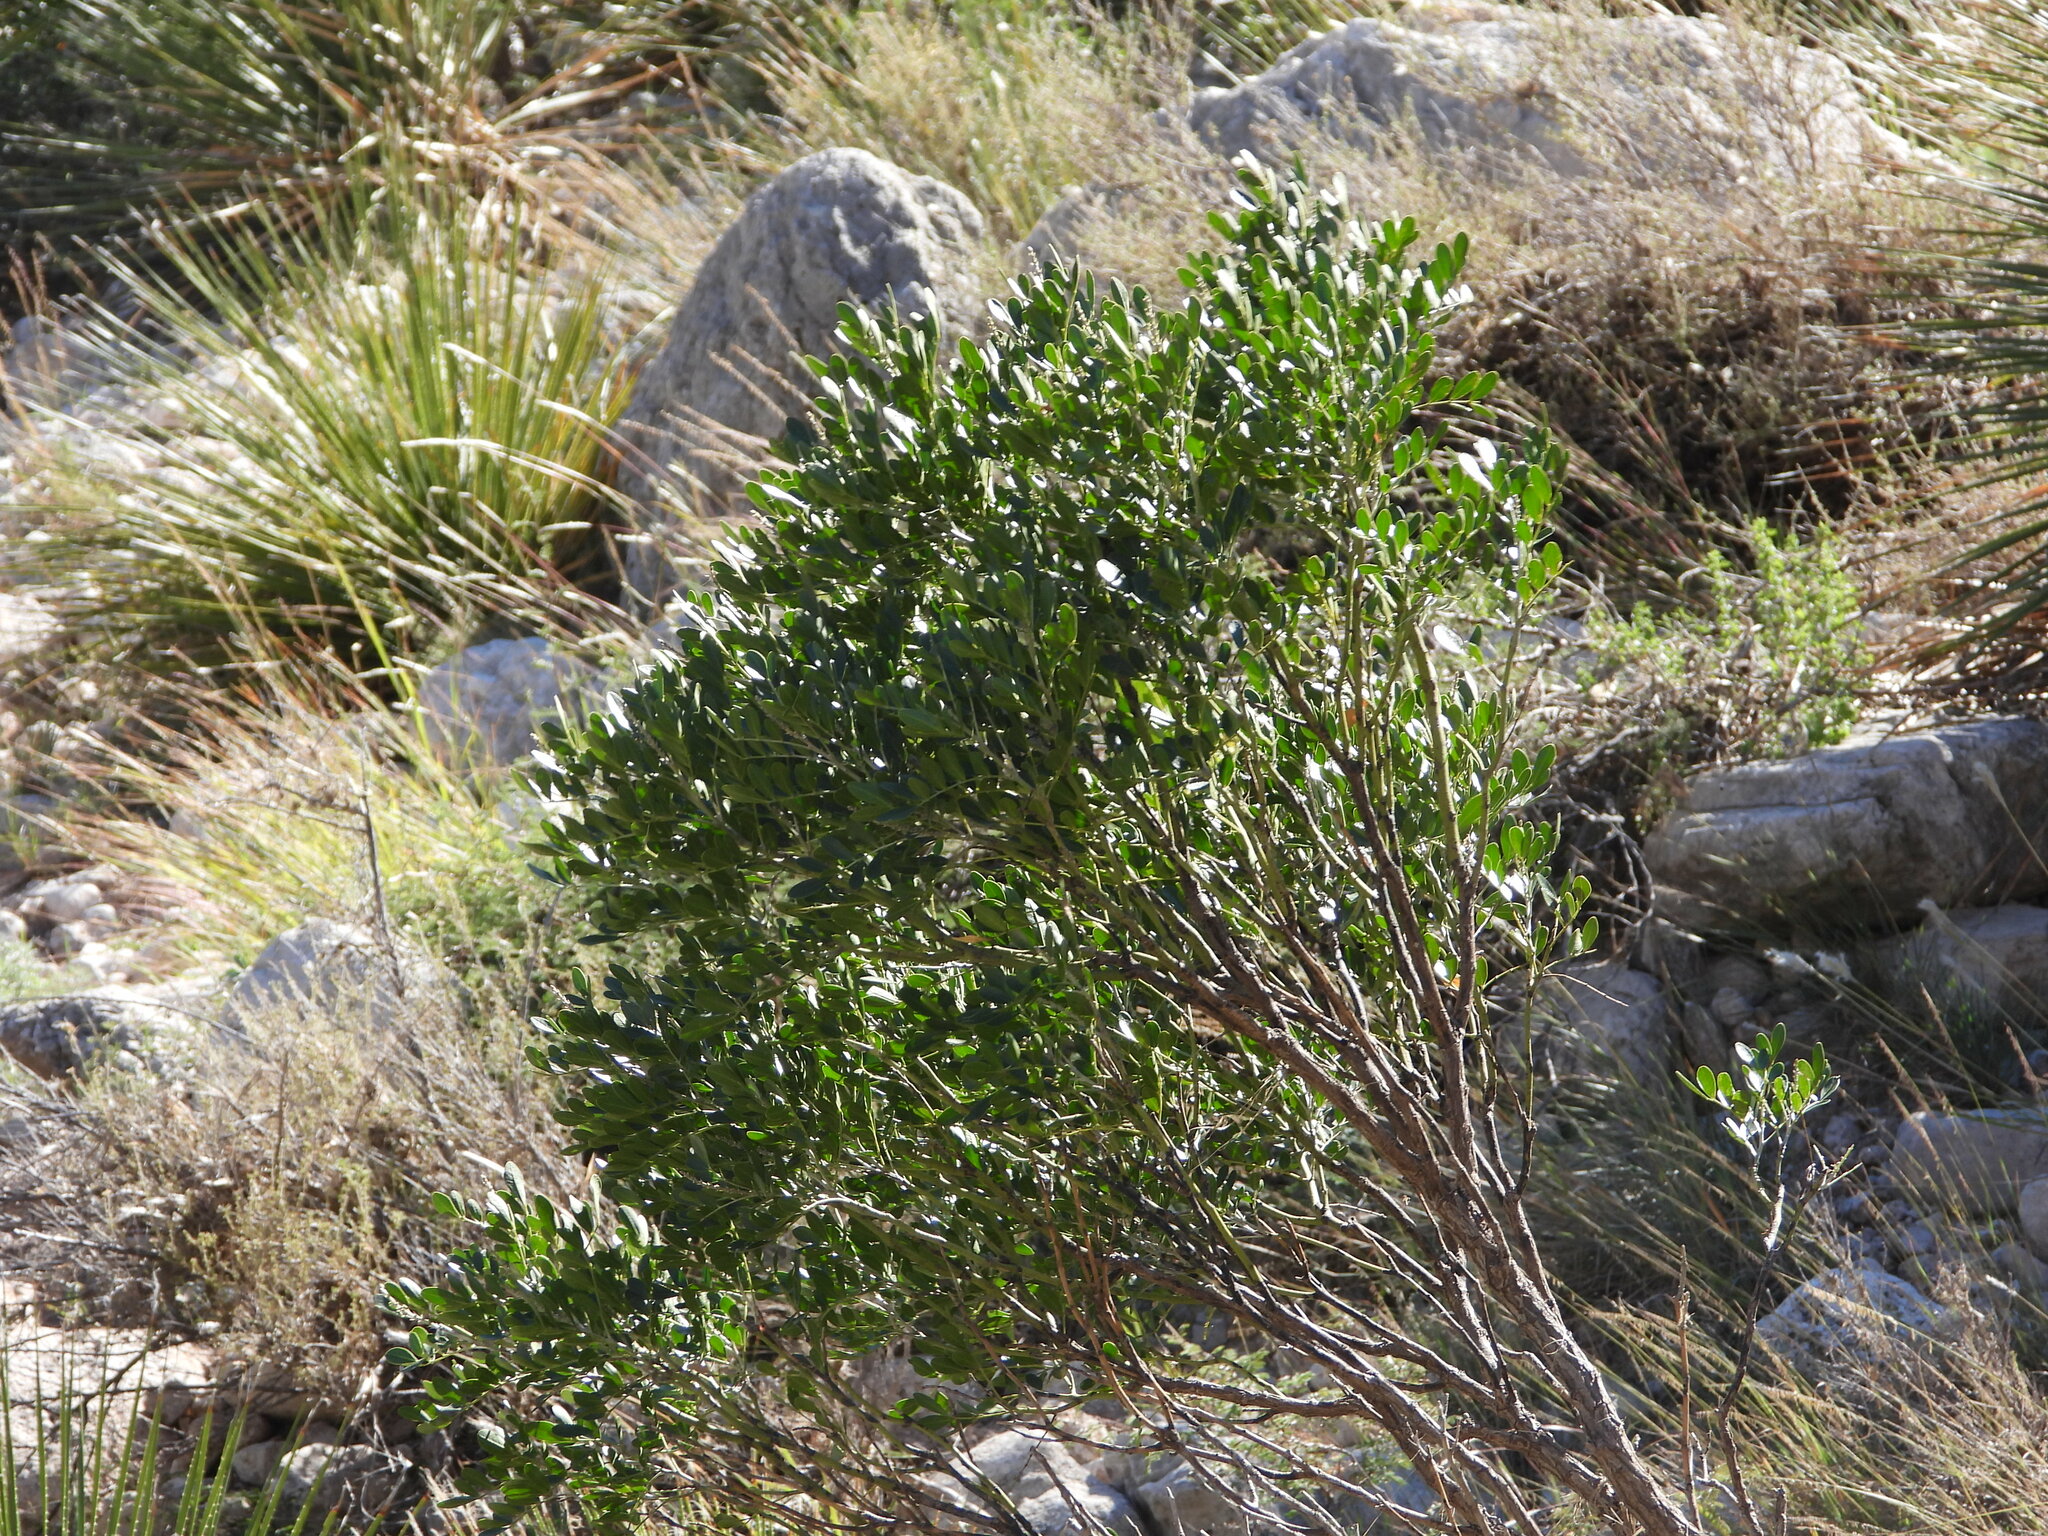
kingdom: Plantae
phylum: Tracheophyta
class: Magnoliopsida
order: Fabales
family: Fabaceae
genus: Dermatophyllum
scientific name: Dermatophyllum secundiflorum
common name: Texas-mountain-laurel
